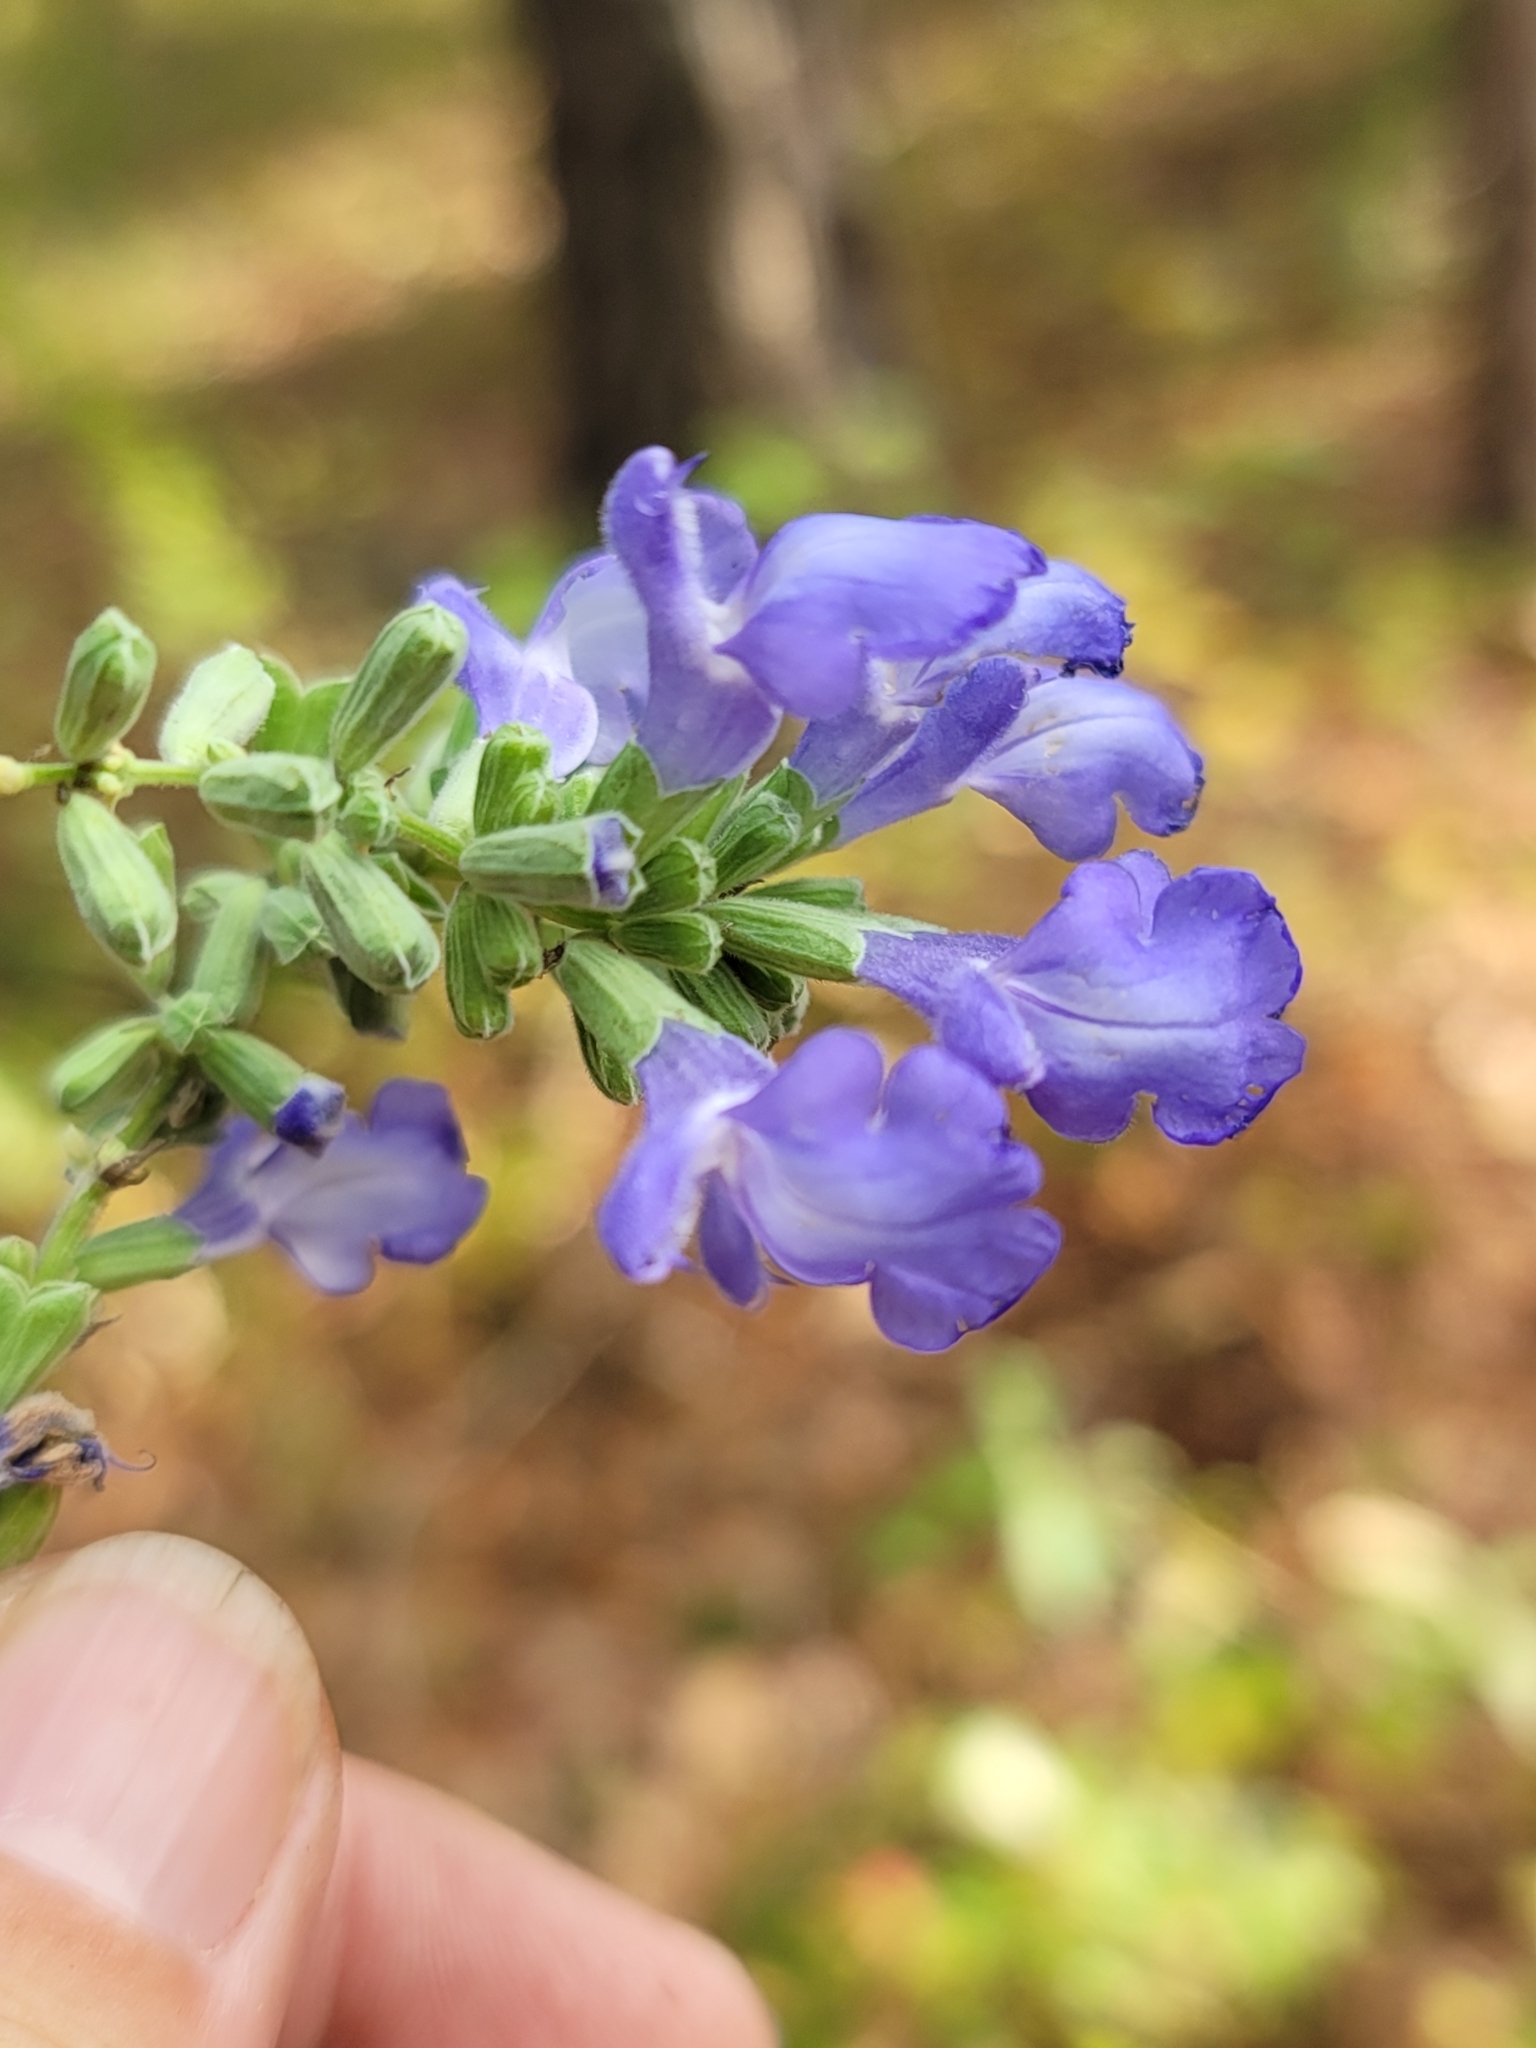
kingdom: Plantae
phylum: Tracheophyta
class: Magnoliopsida
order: Lamiales
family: Lamiaceae
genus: Salvia
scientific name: Salvia azurea
